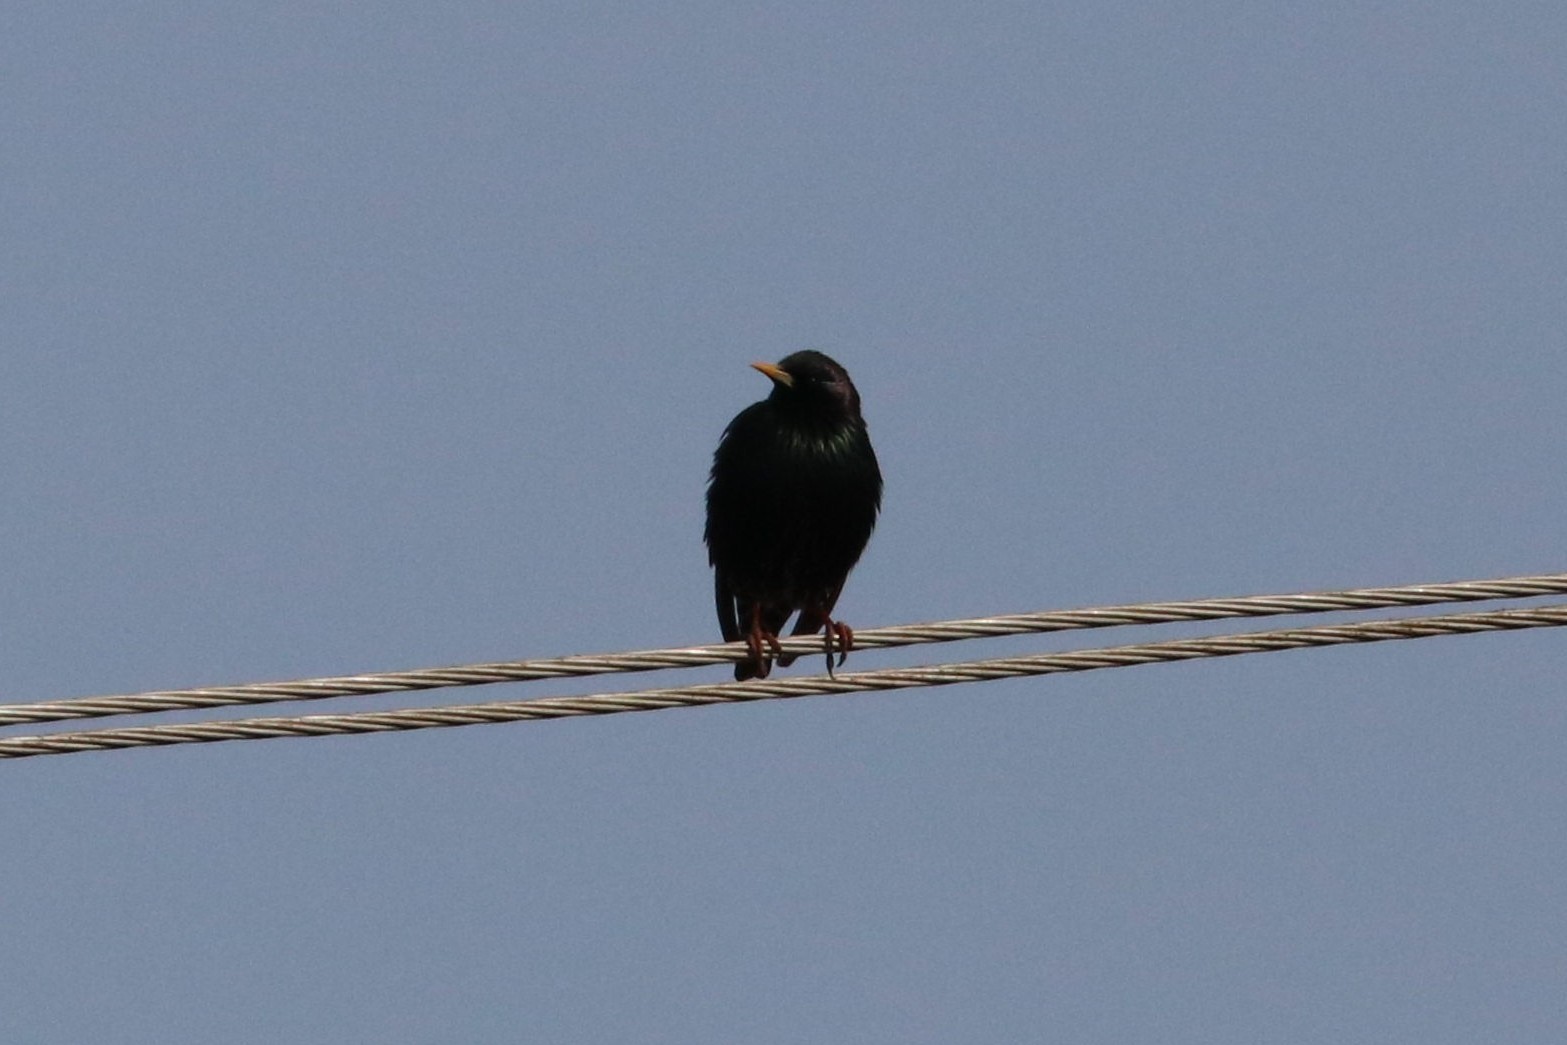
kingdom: Animalia
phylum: Chordata
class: Aves
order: Passeriformes
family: Sturnidae
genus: Sturnus
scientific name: Sturnus vulgaris
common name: Common starling
